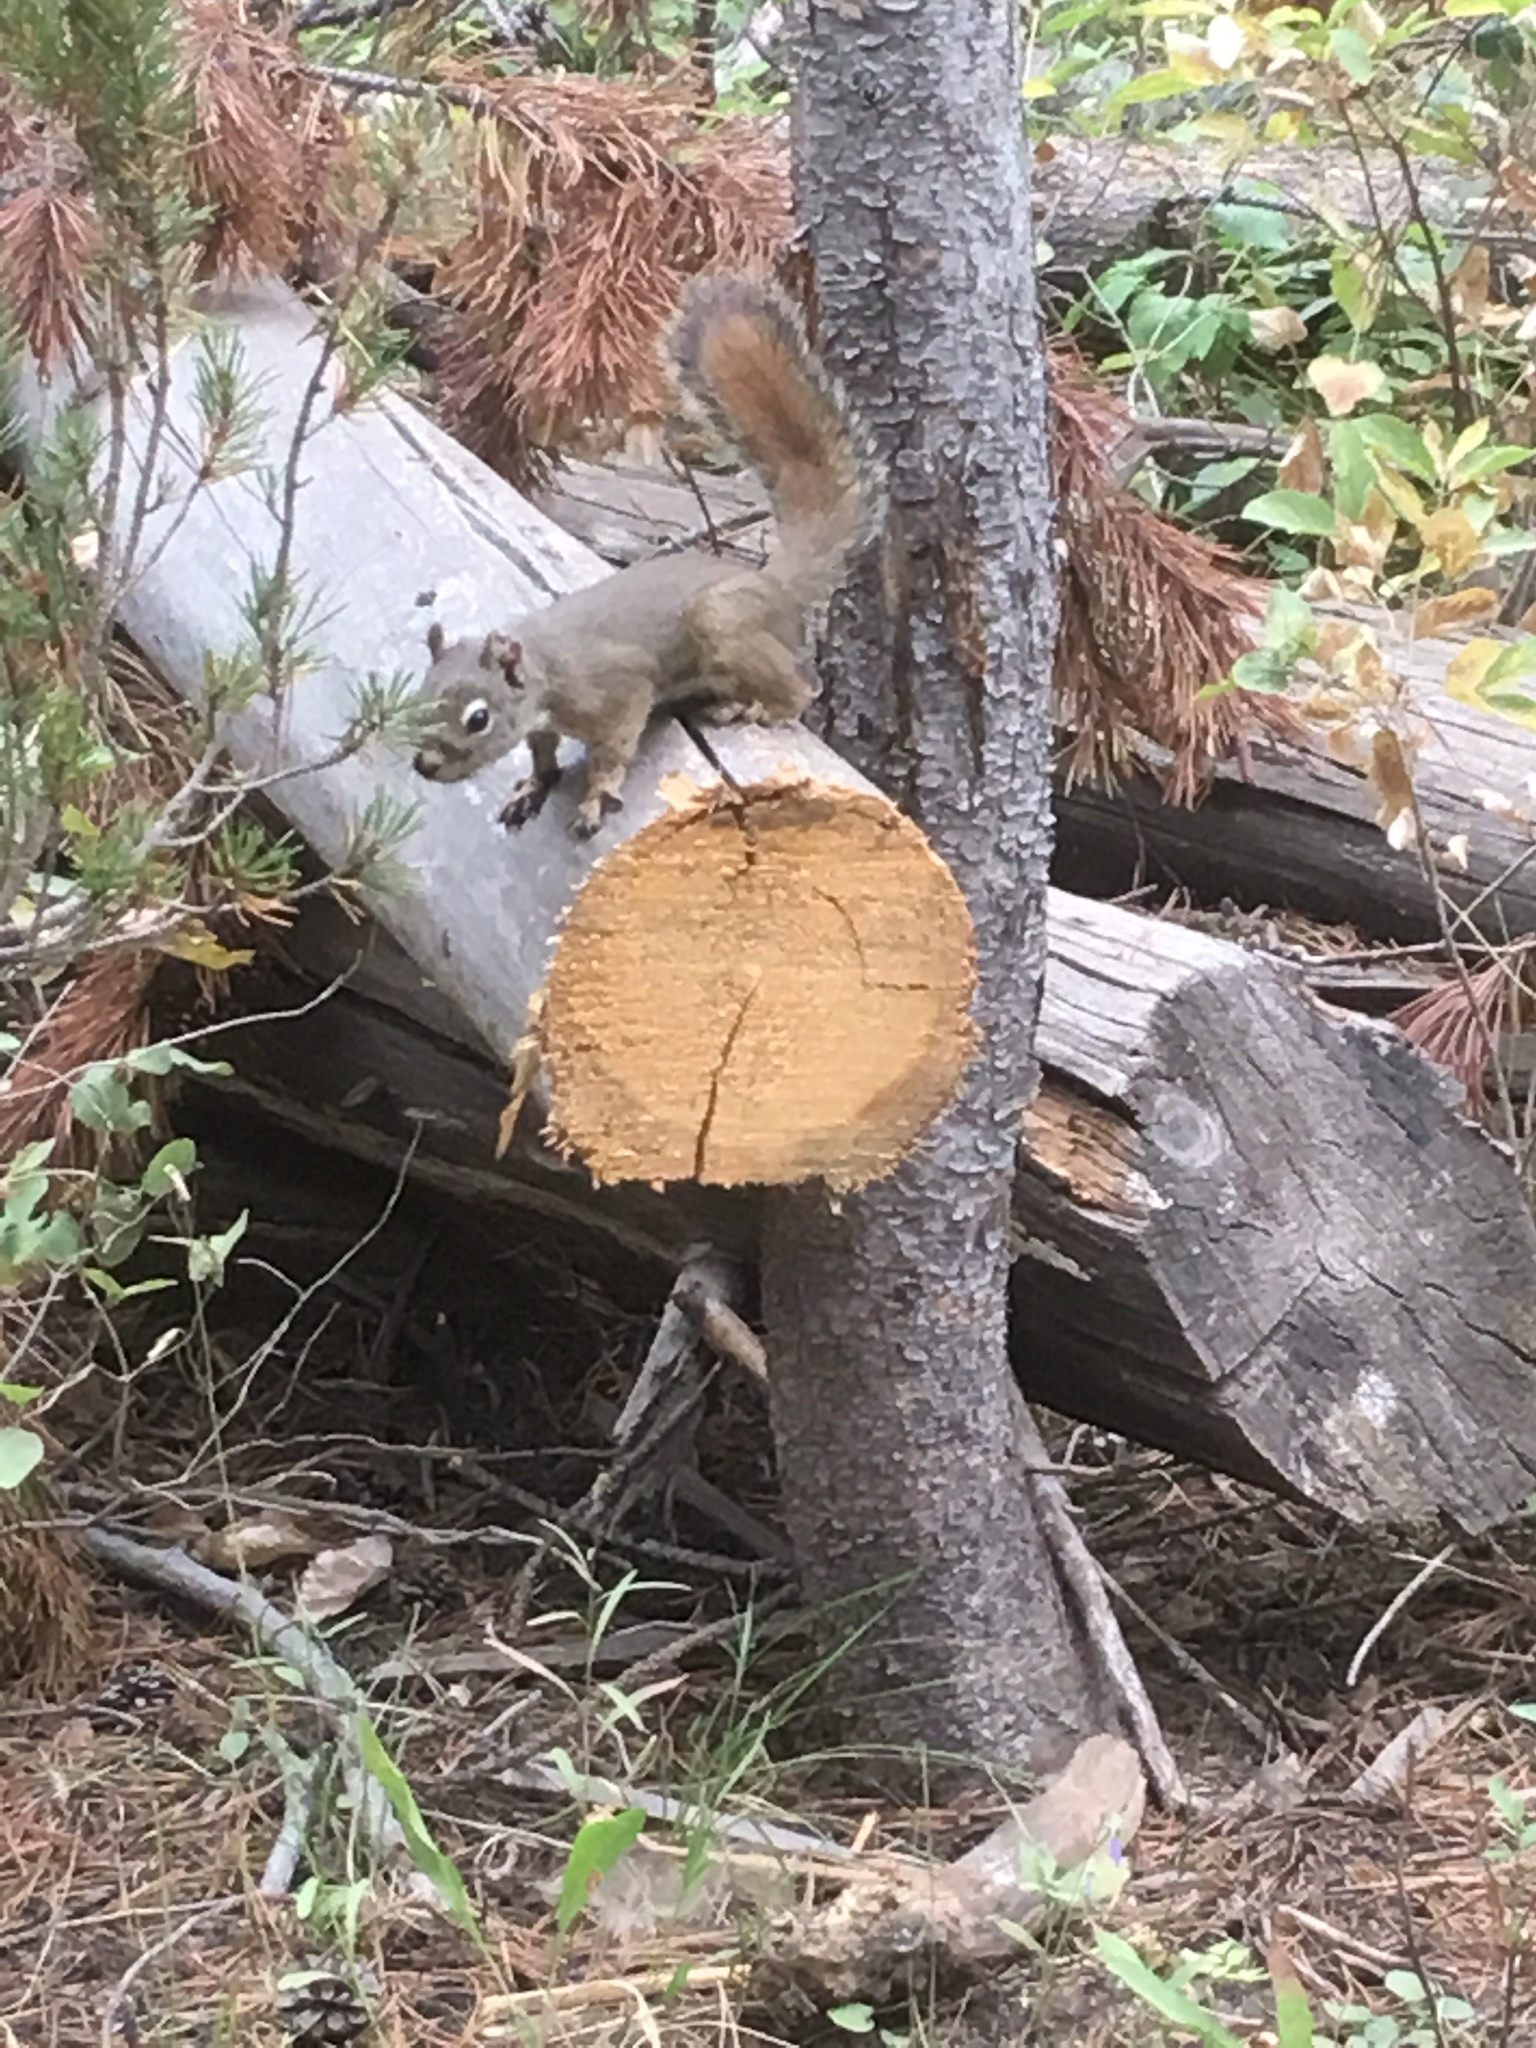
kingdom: Animalia
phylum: Chordata
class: Mammalia
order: Rodentia
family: Sciuridae
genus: Tamiasciurus
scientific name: Tamiasciurus hudsonicus
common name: Red squirrel
